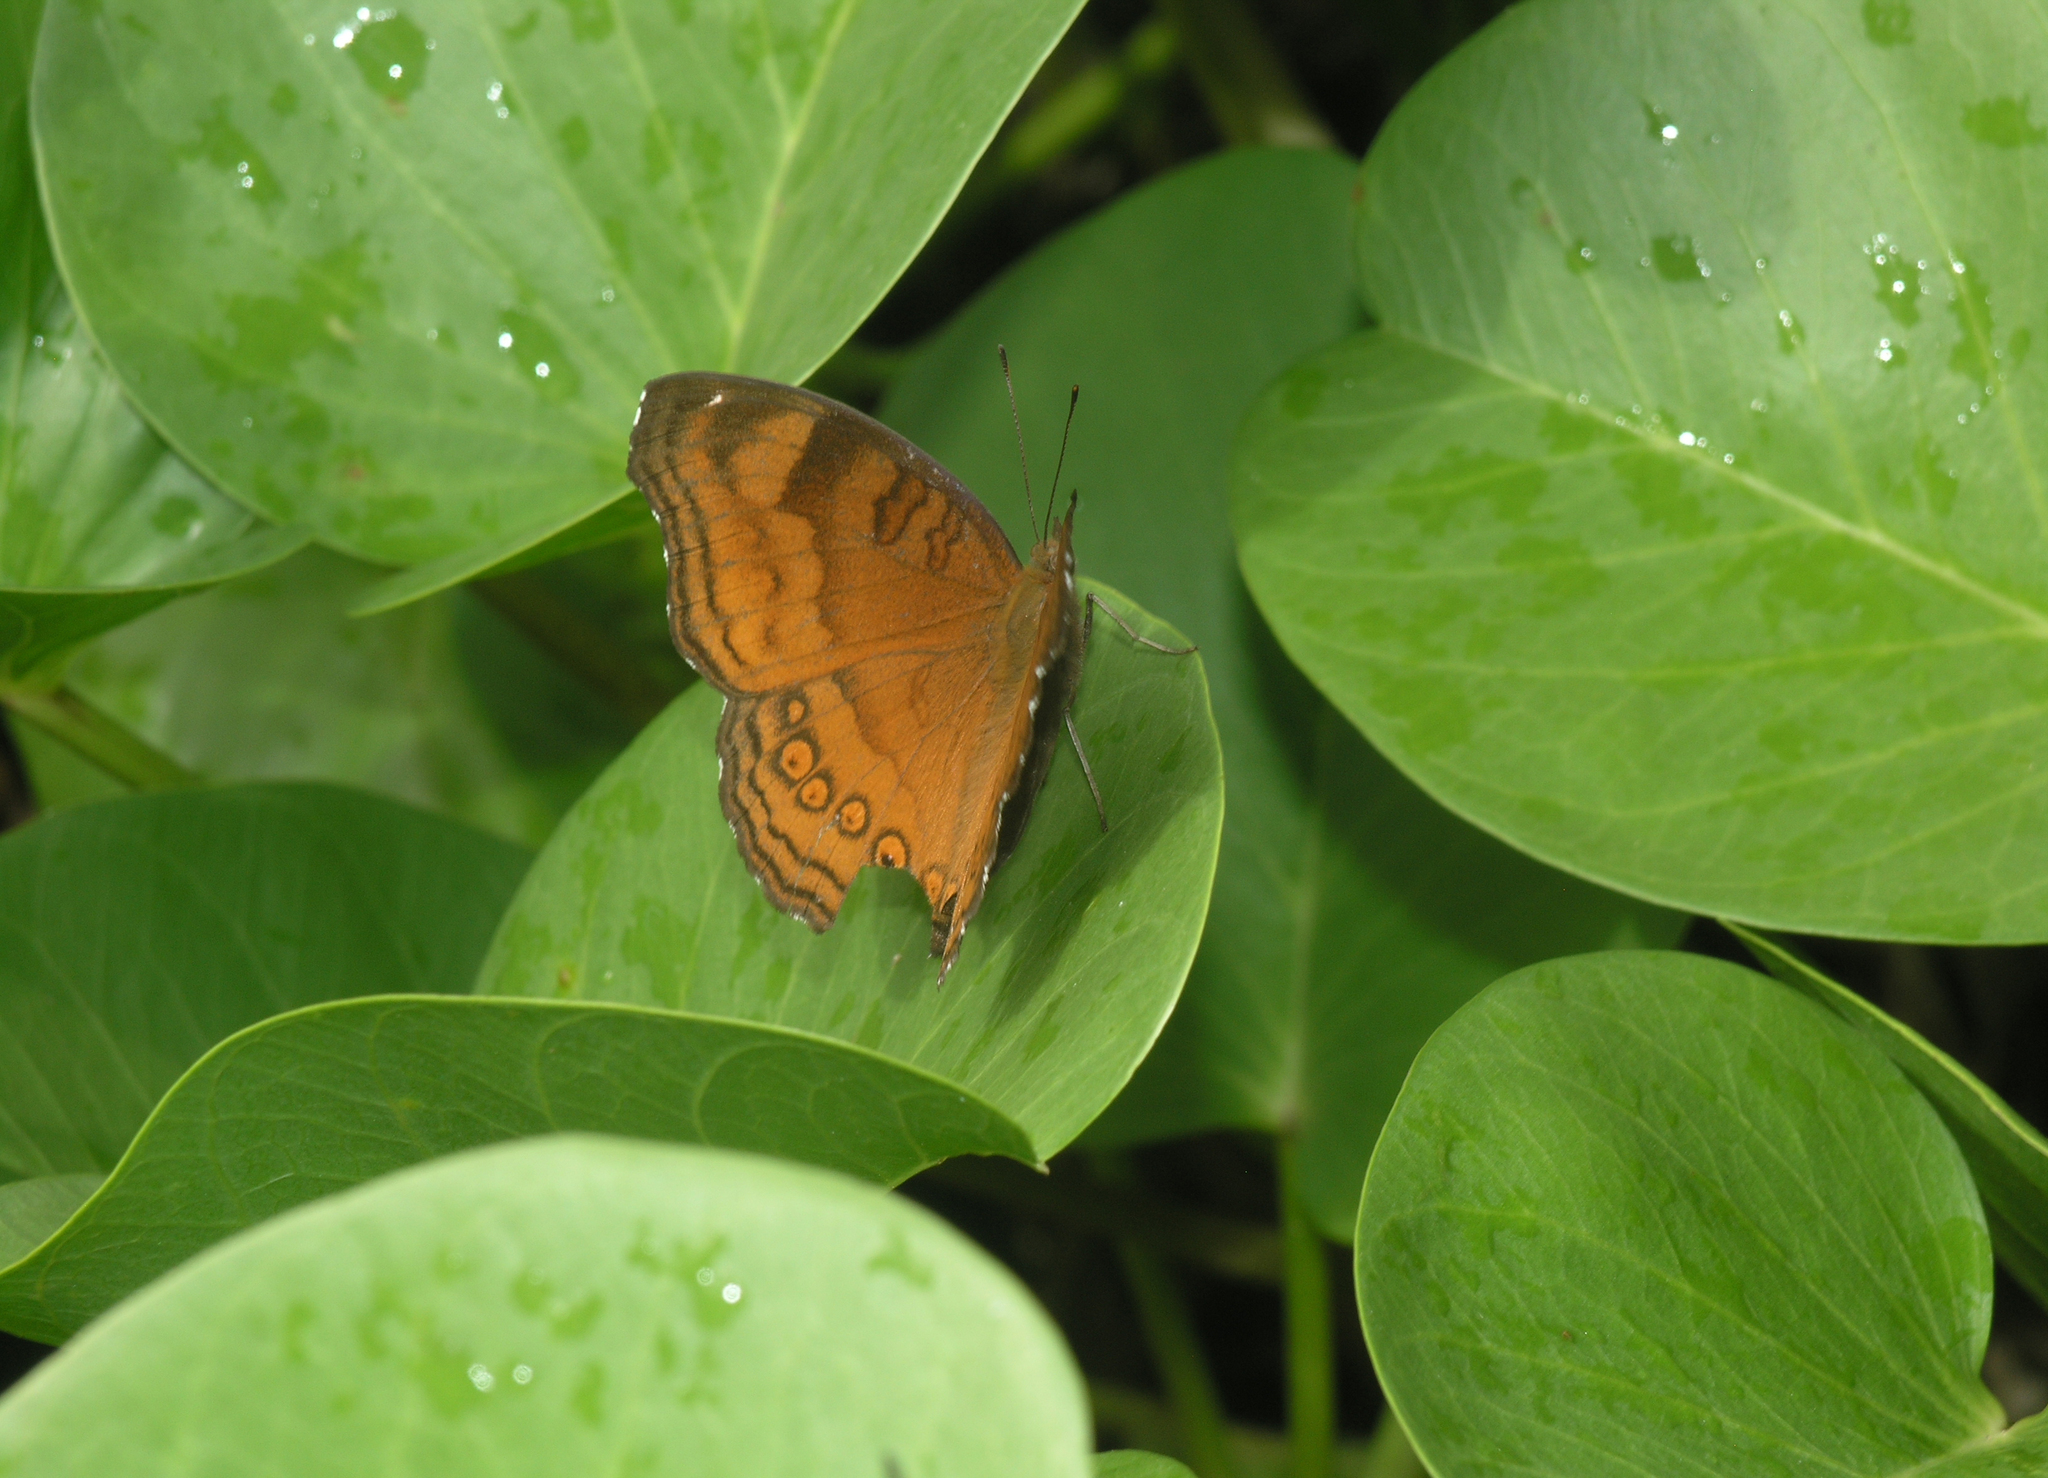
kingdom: Animalia
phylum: Arthropoda
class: Insecta
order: Lepidoptera
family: Nymphalidae
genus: Junonia
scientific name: Junonia hedonia
